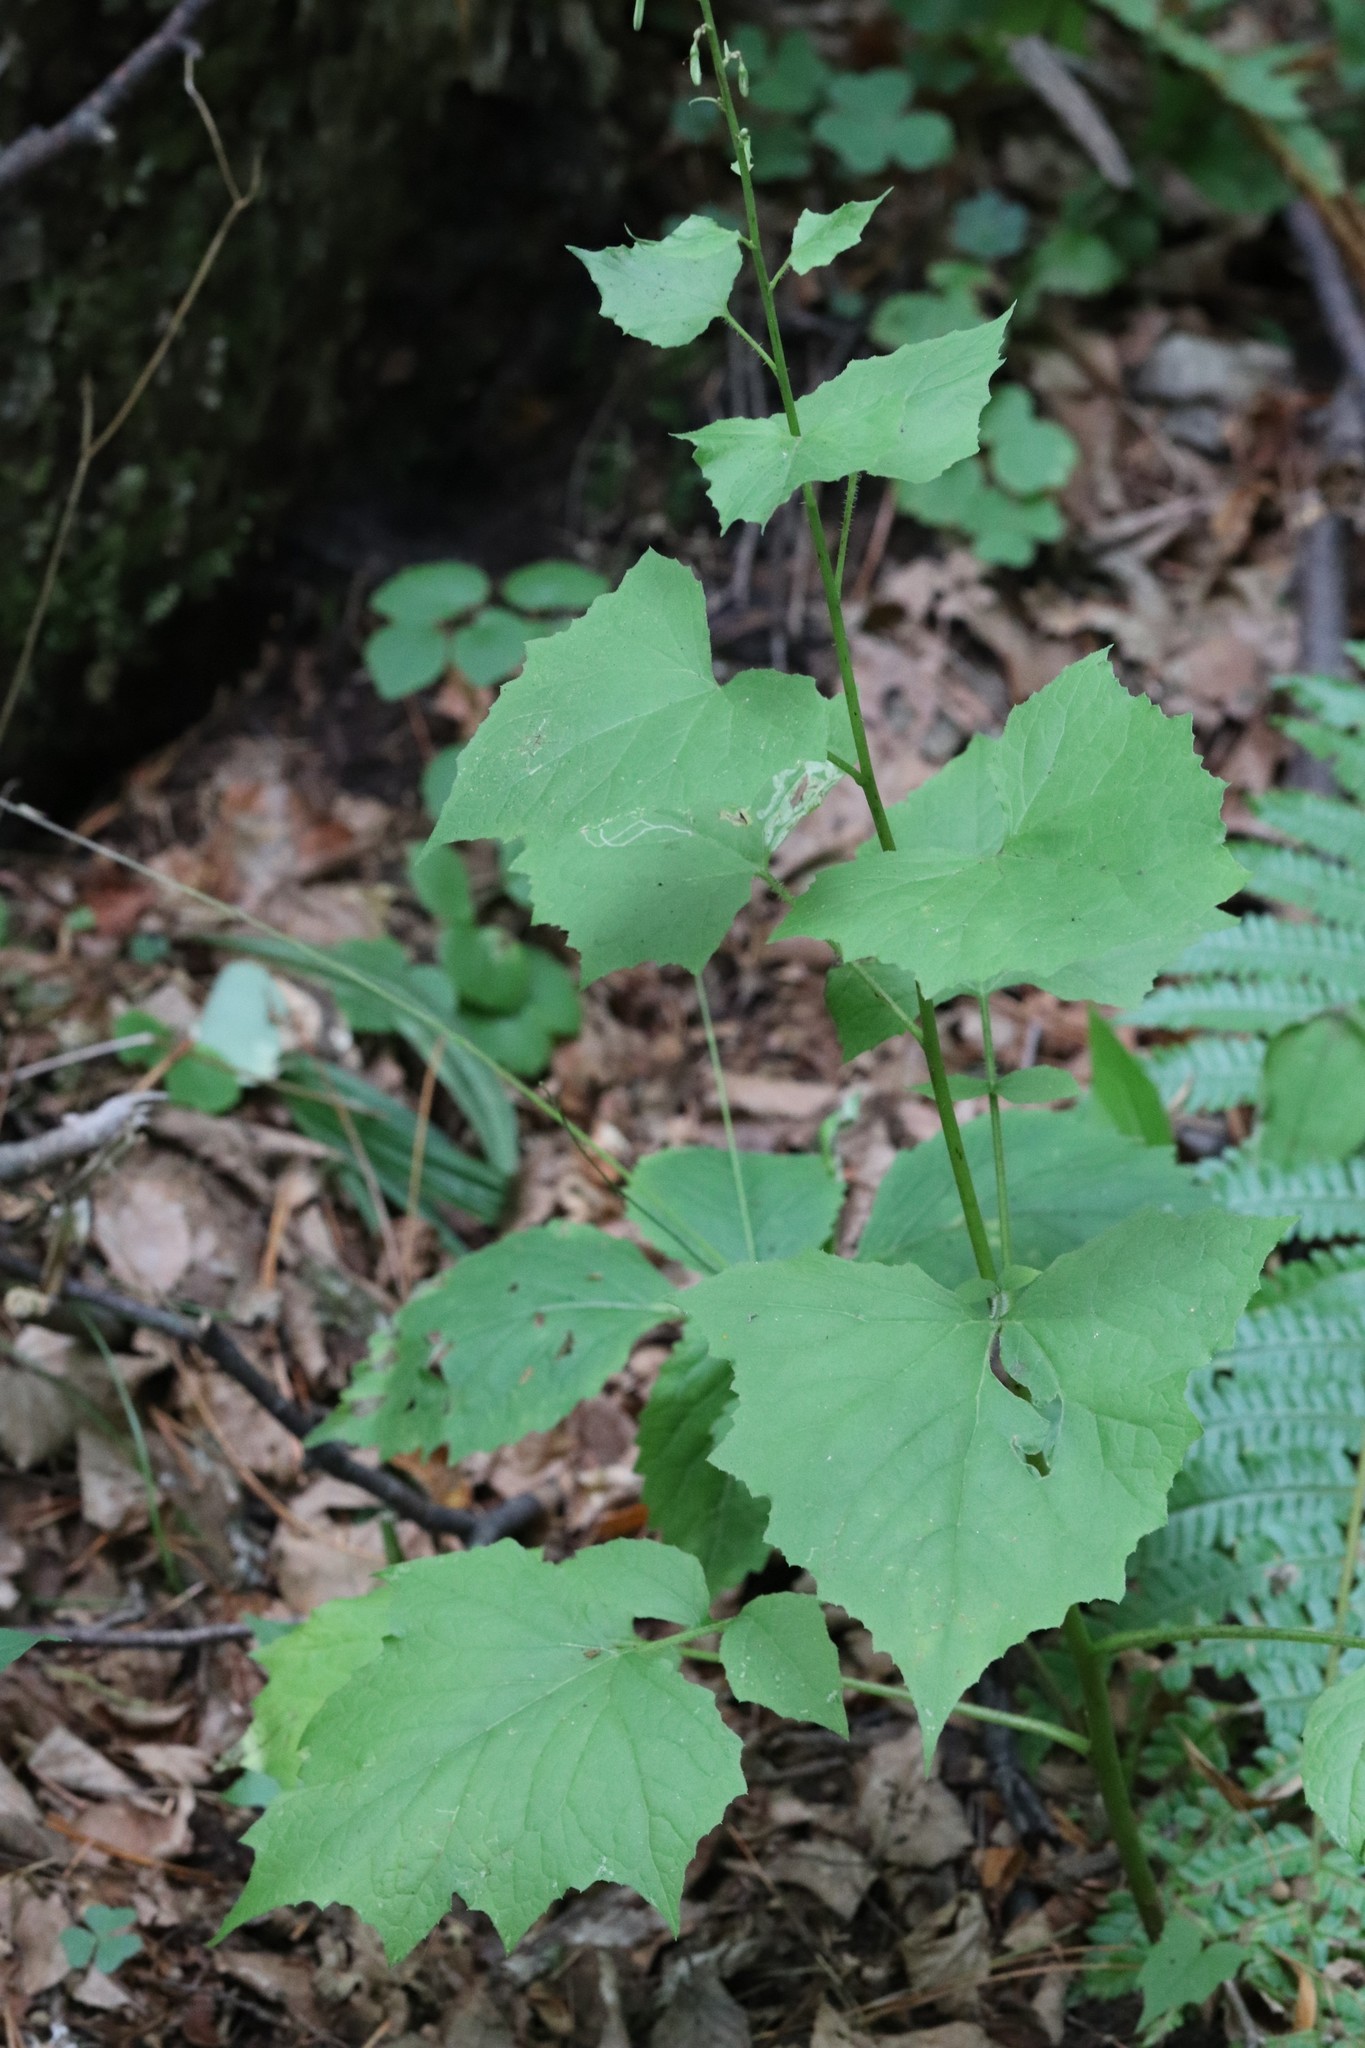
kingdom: Plantae
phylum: Tracheophyta
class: Magnoliopsida
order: Asterales
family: Asteraceae
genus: Nabalus
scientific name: Nabalus tatarinowii
